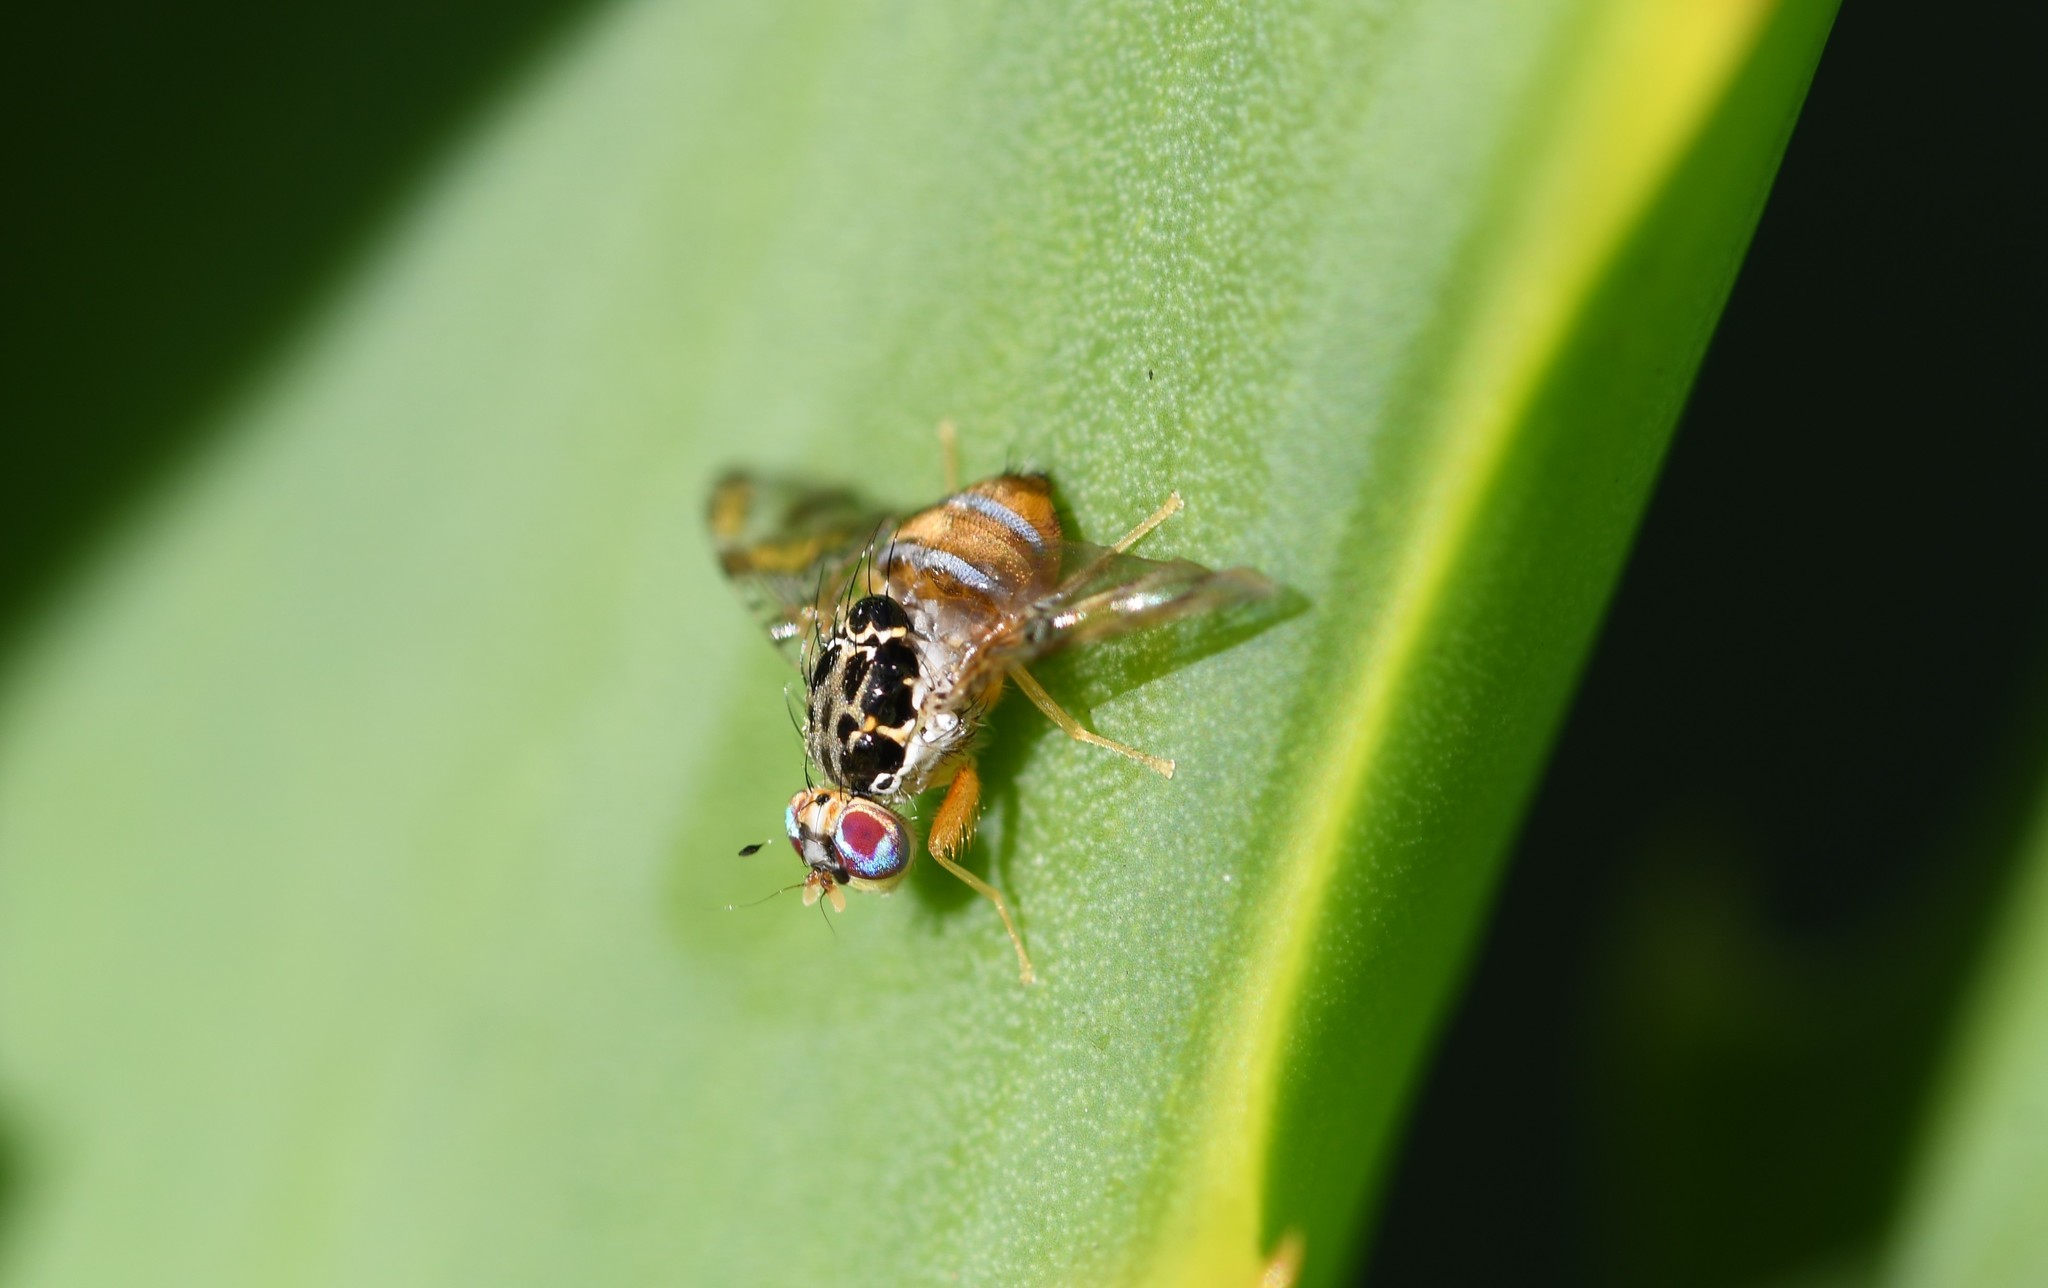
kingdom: Animalia
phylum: Arthropoda
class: Insecta
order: Diptera
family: Tephritidae
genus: Ceratitis
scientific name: Ceratitis capitata
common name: Mediterranean fruit fly
